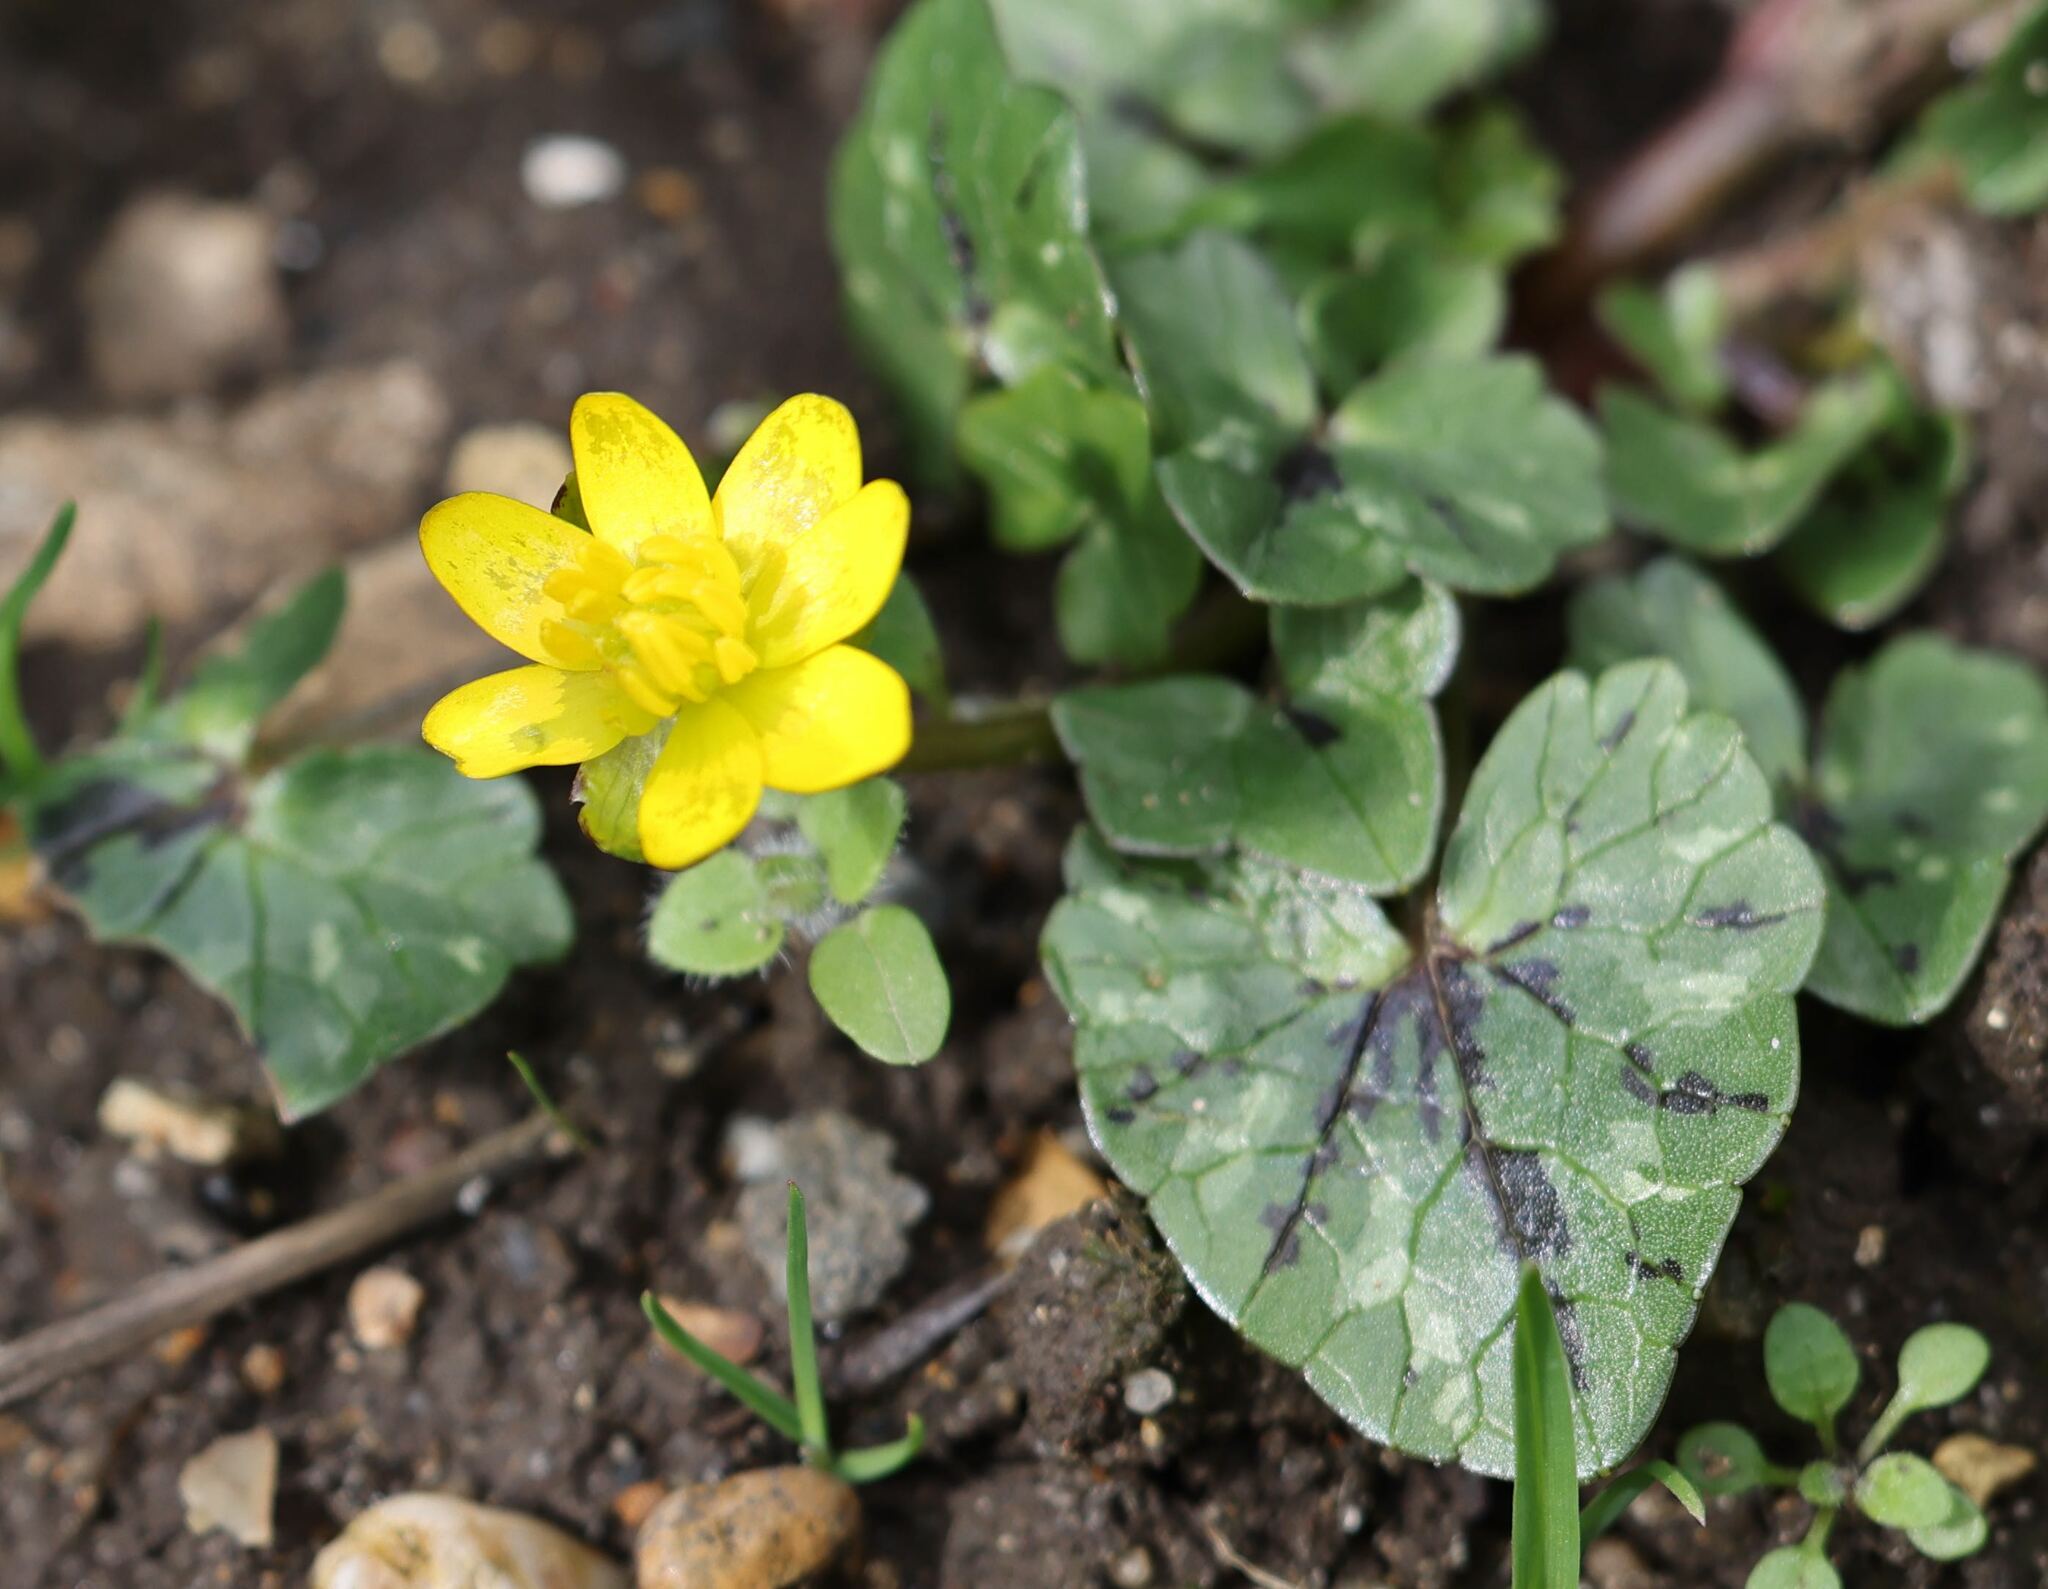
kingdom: Plantae
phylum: Tracheophyta
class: Magnoliopsida
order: Ranunculales
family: Ranunculaceae
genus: Ficaria
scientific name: Ficaria verna
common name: Lesser celandine
